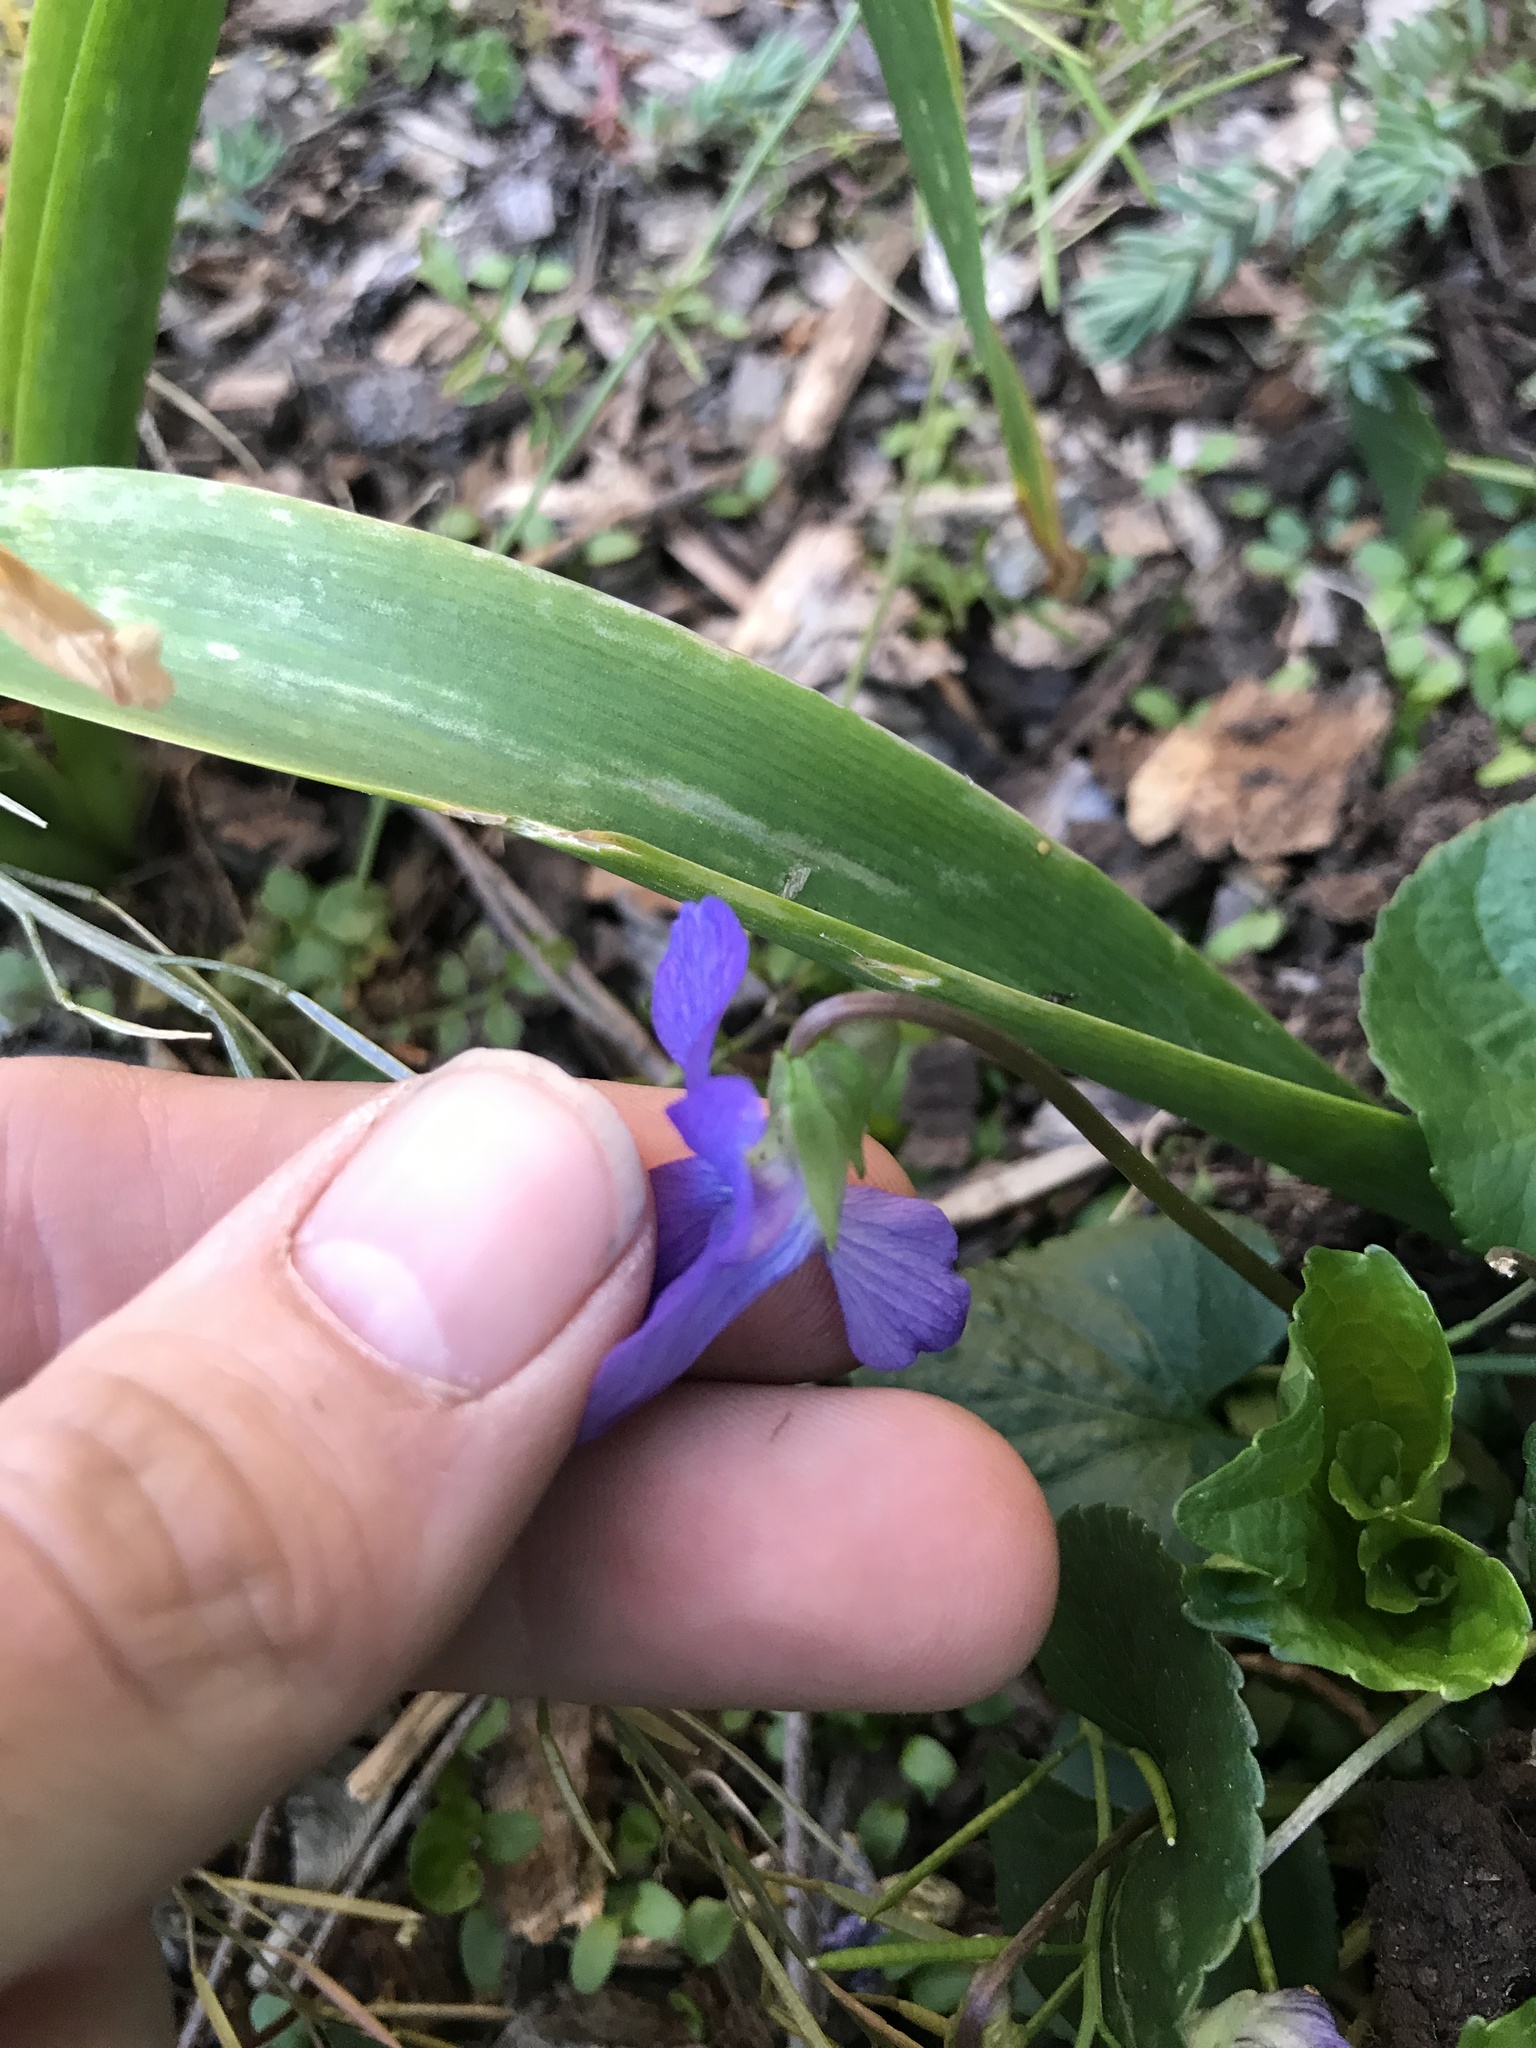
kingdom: Plantae
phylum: Tracheophyta
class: Magnoliopsida
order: Malpighiales
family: Violaceae
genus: Viola
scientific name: Viola sororia
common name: Dooryard violet
